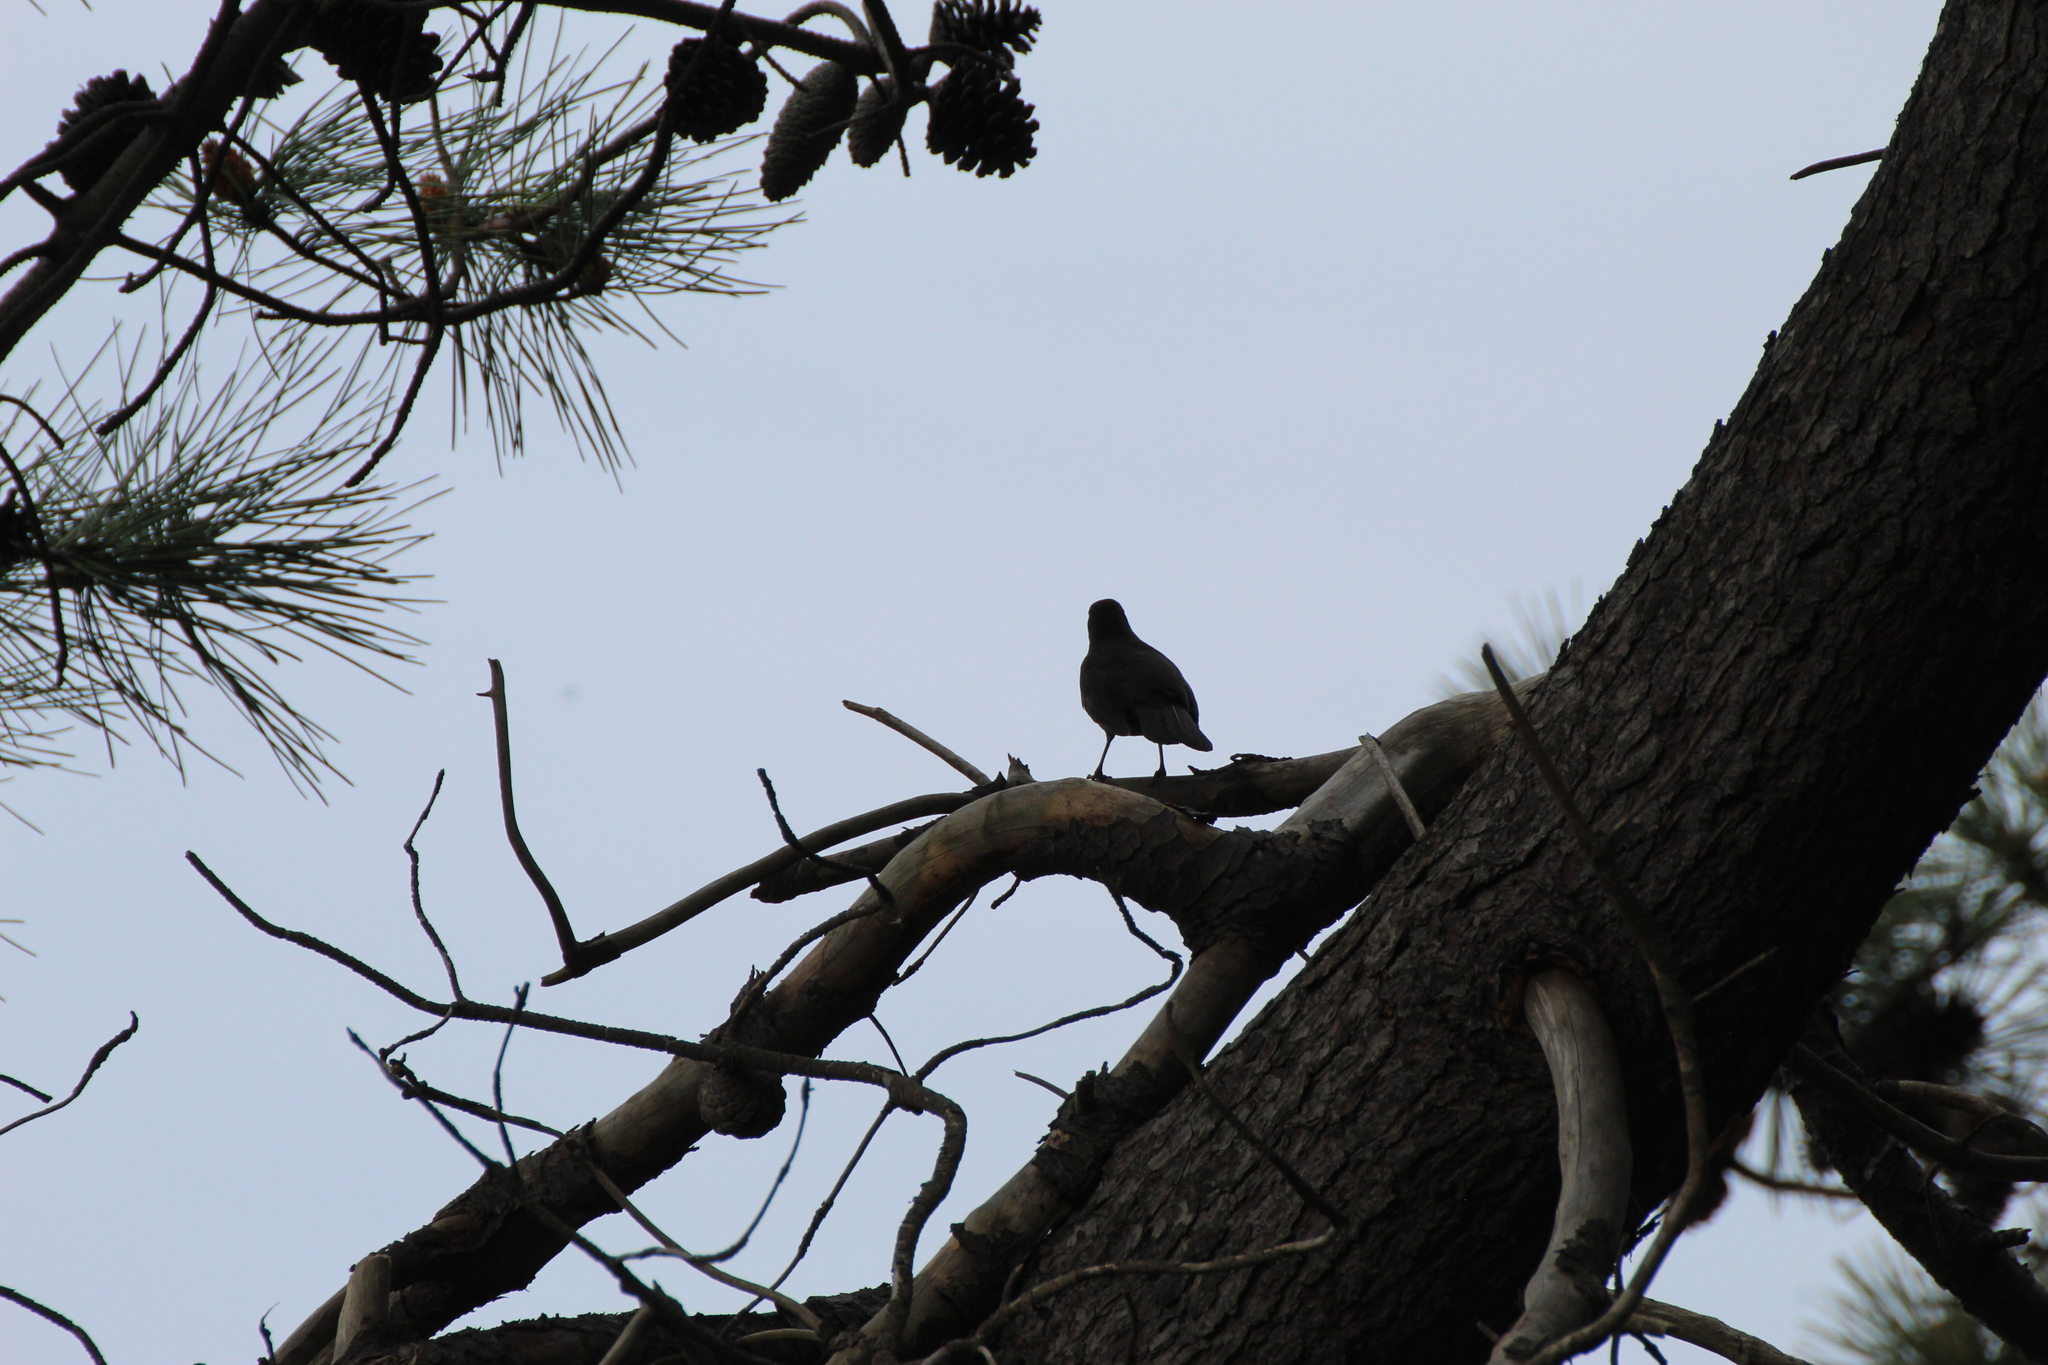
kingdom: Animalia
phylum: Chordata
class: Aves
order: Passeriformes
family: Turdidae
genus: Turdus
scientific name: Turdus merula
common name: Common blackbird
